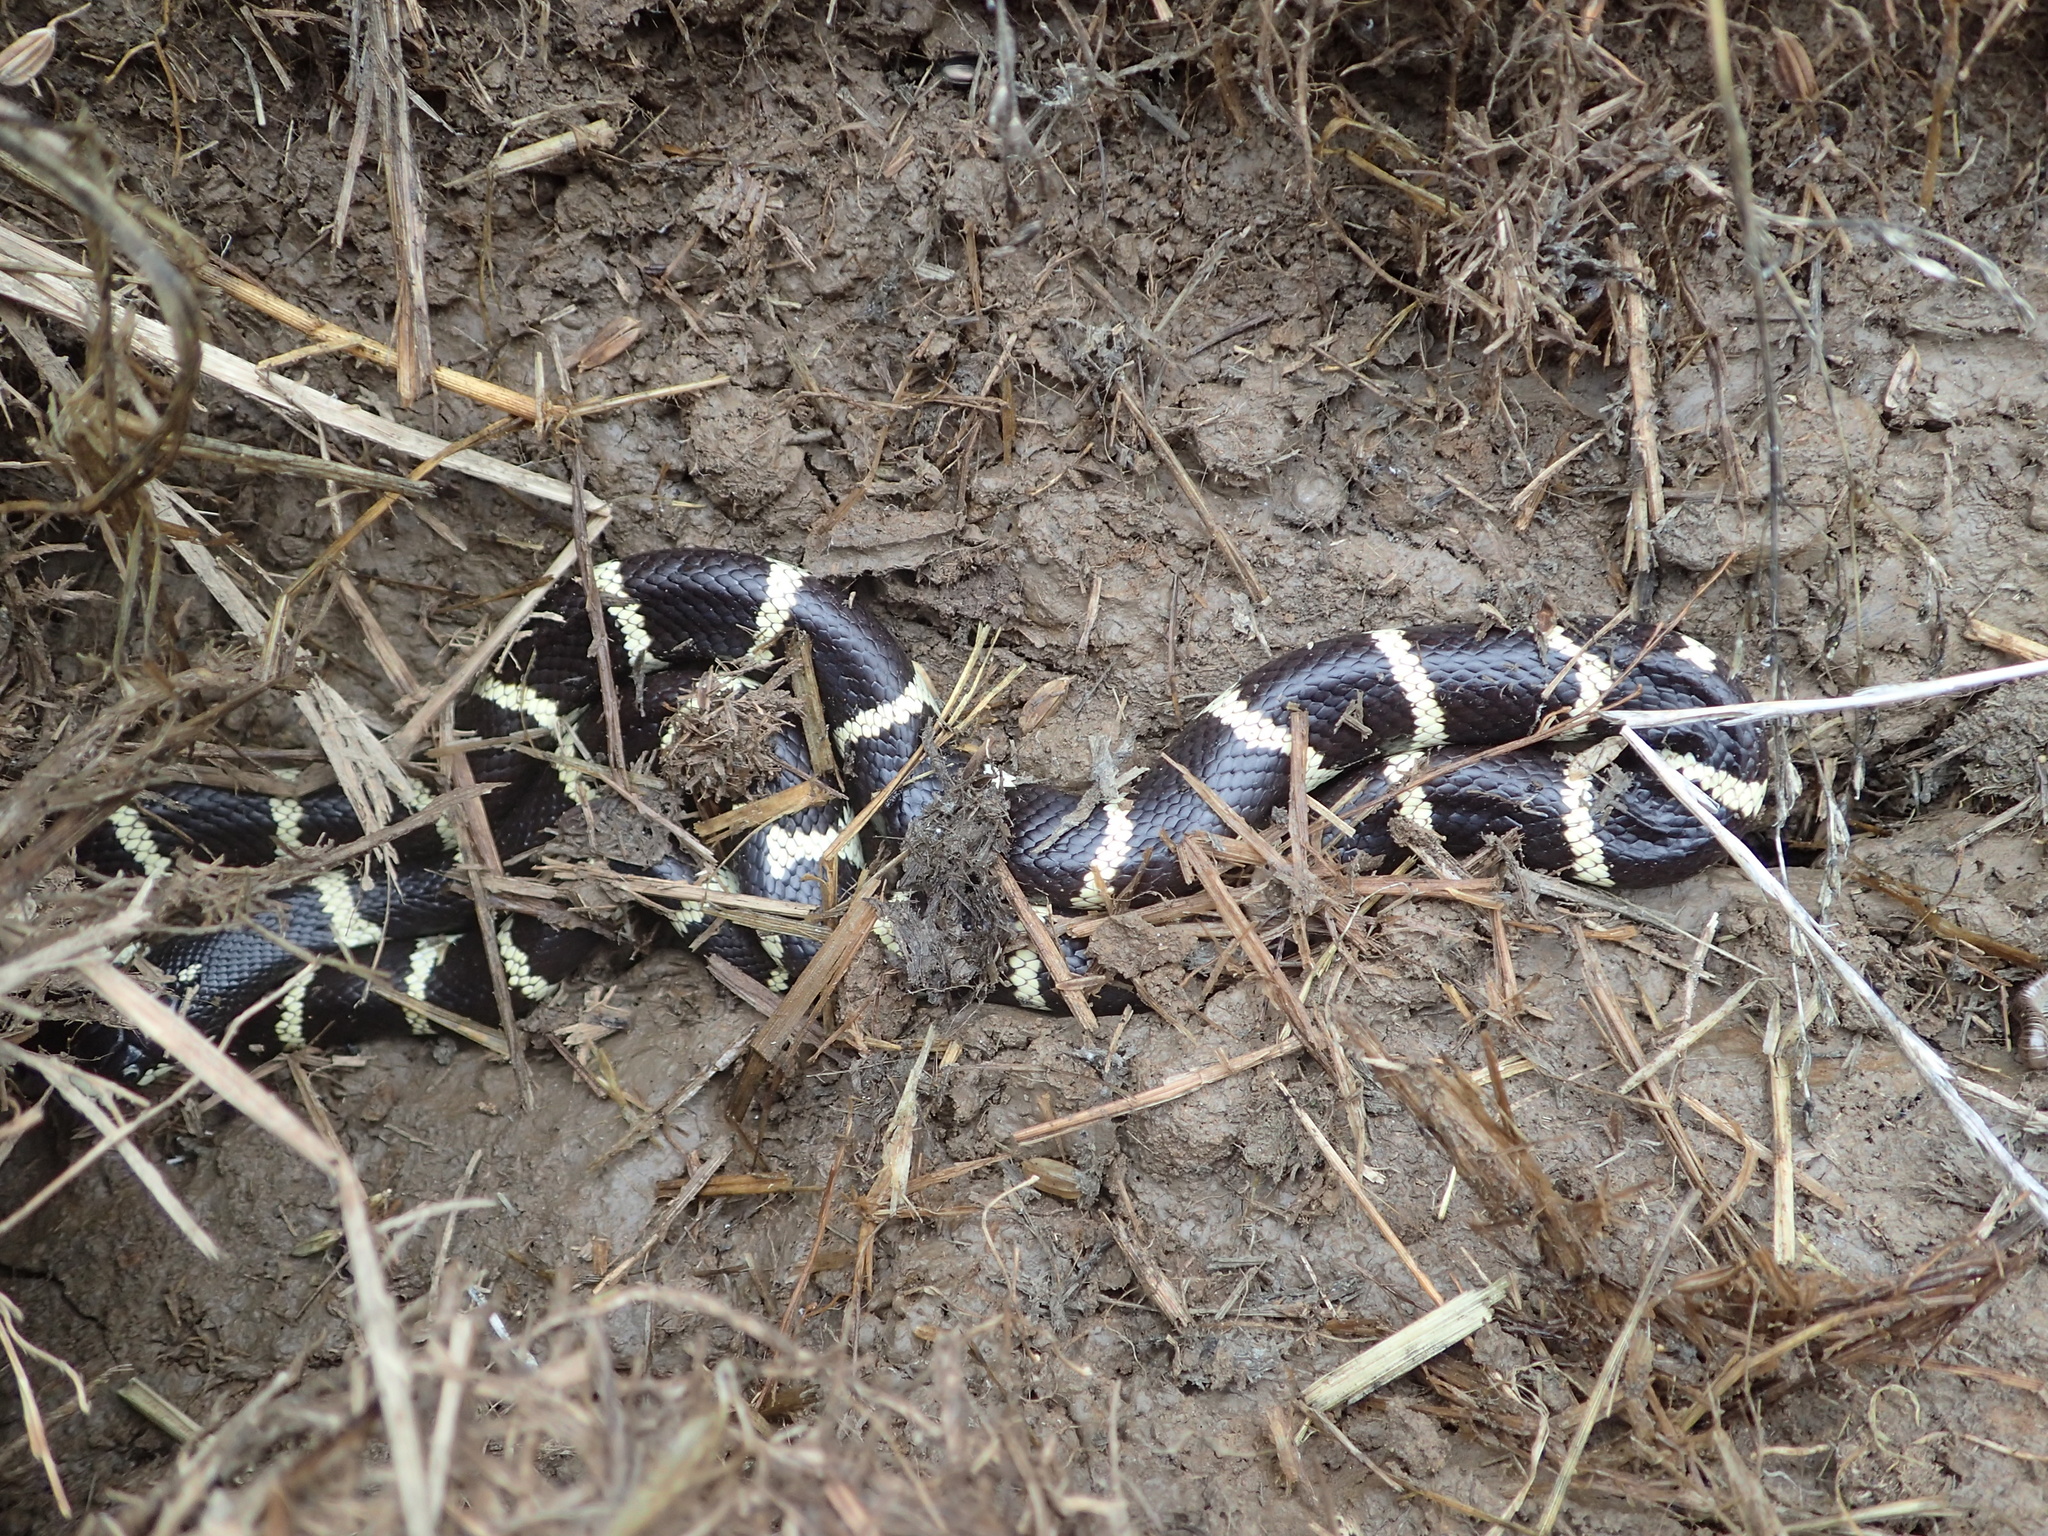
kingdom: Animalia
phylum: Chordata
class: Squamata
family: Colubridae
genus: Lampropeltis
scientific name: Lampropeltis californiae
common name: California kingsnake
